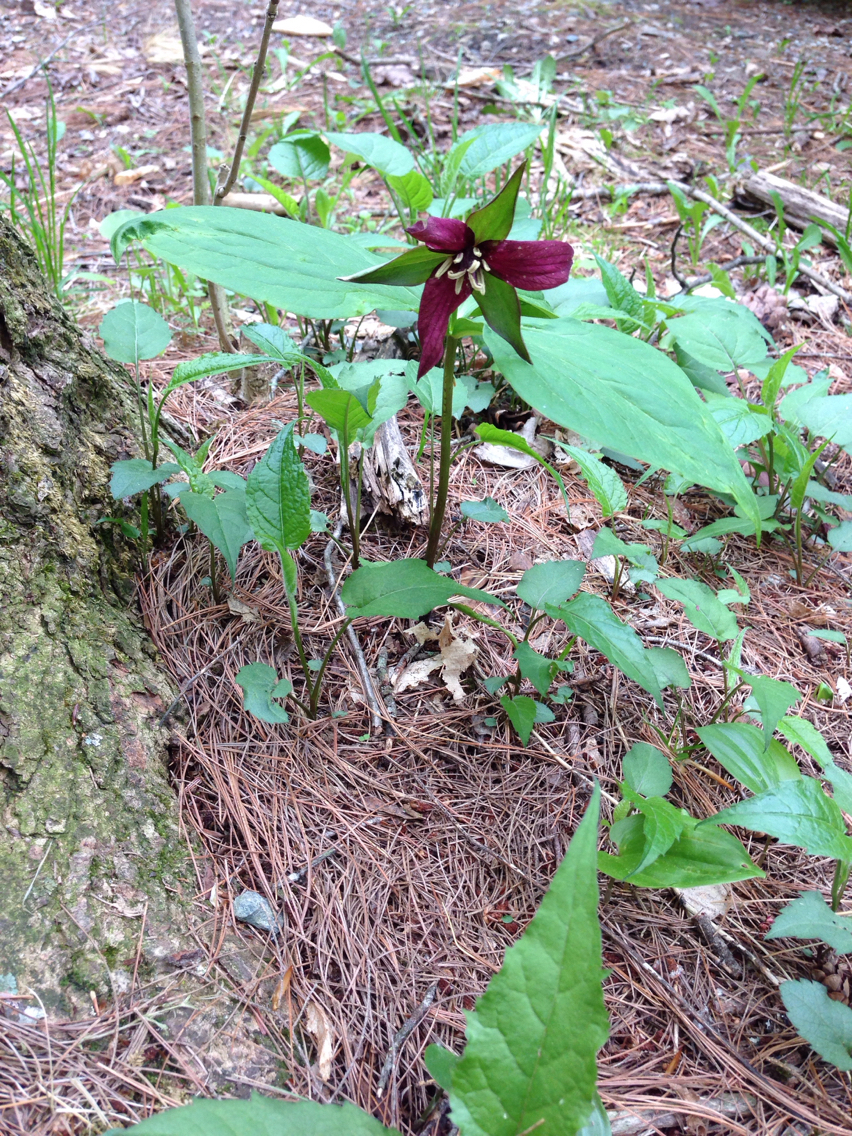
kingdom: Plantae
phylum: Tracheophyta
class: Liliopsida
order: Liliales
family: Melanthiaceae
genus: Trillium
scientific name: Trillium erectum
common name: Purple trillium
